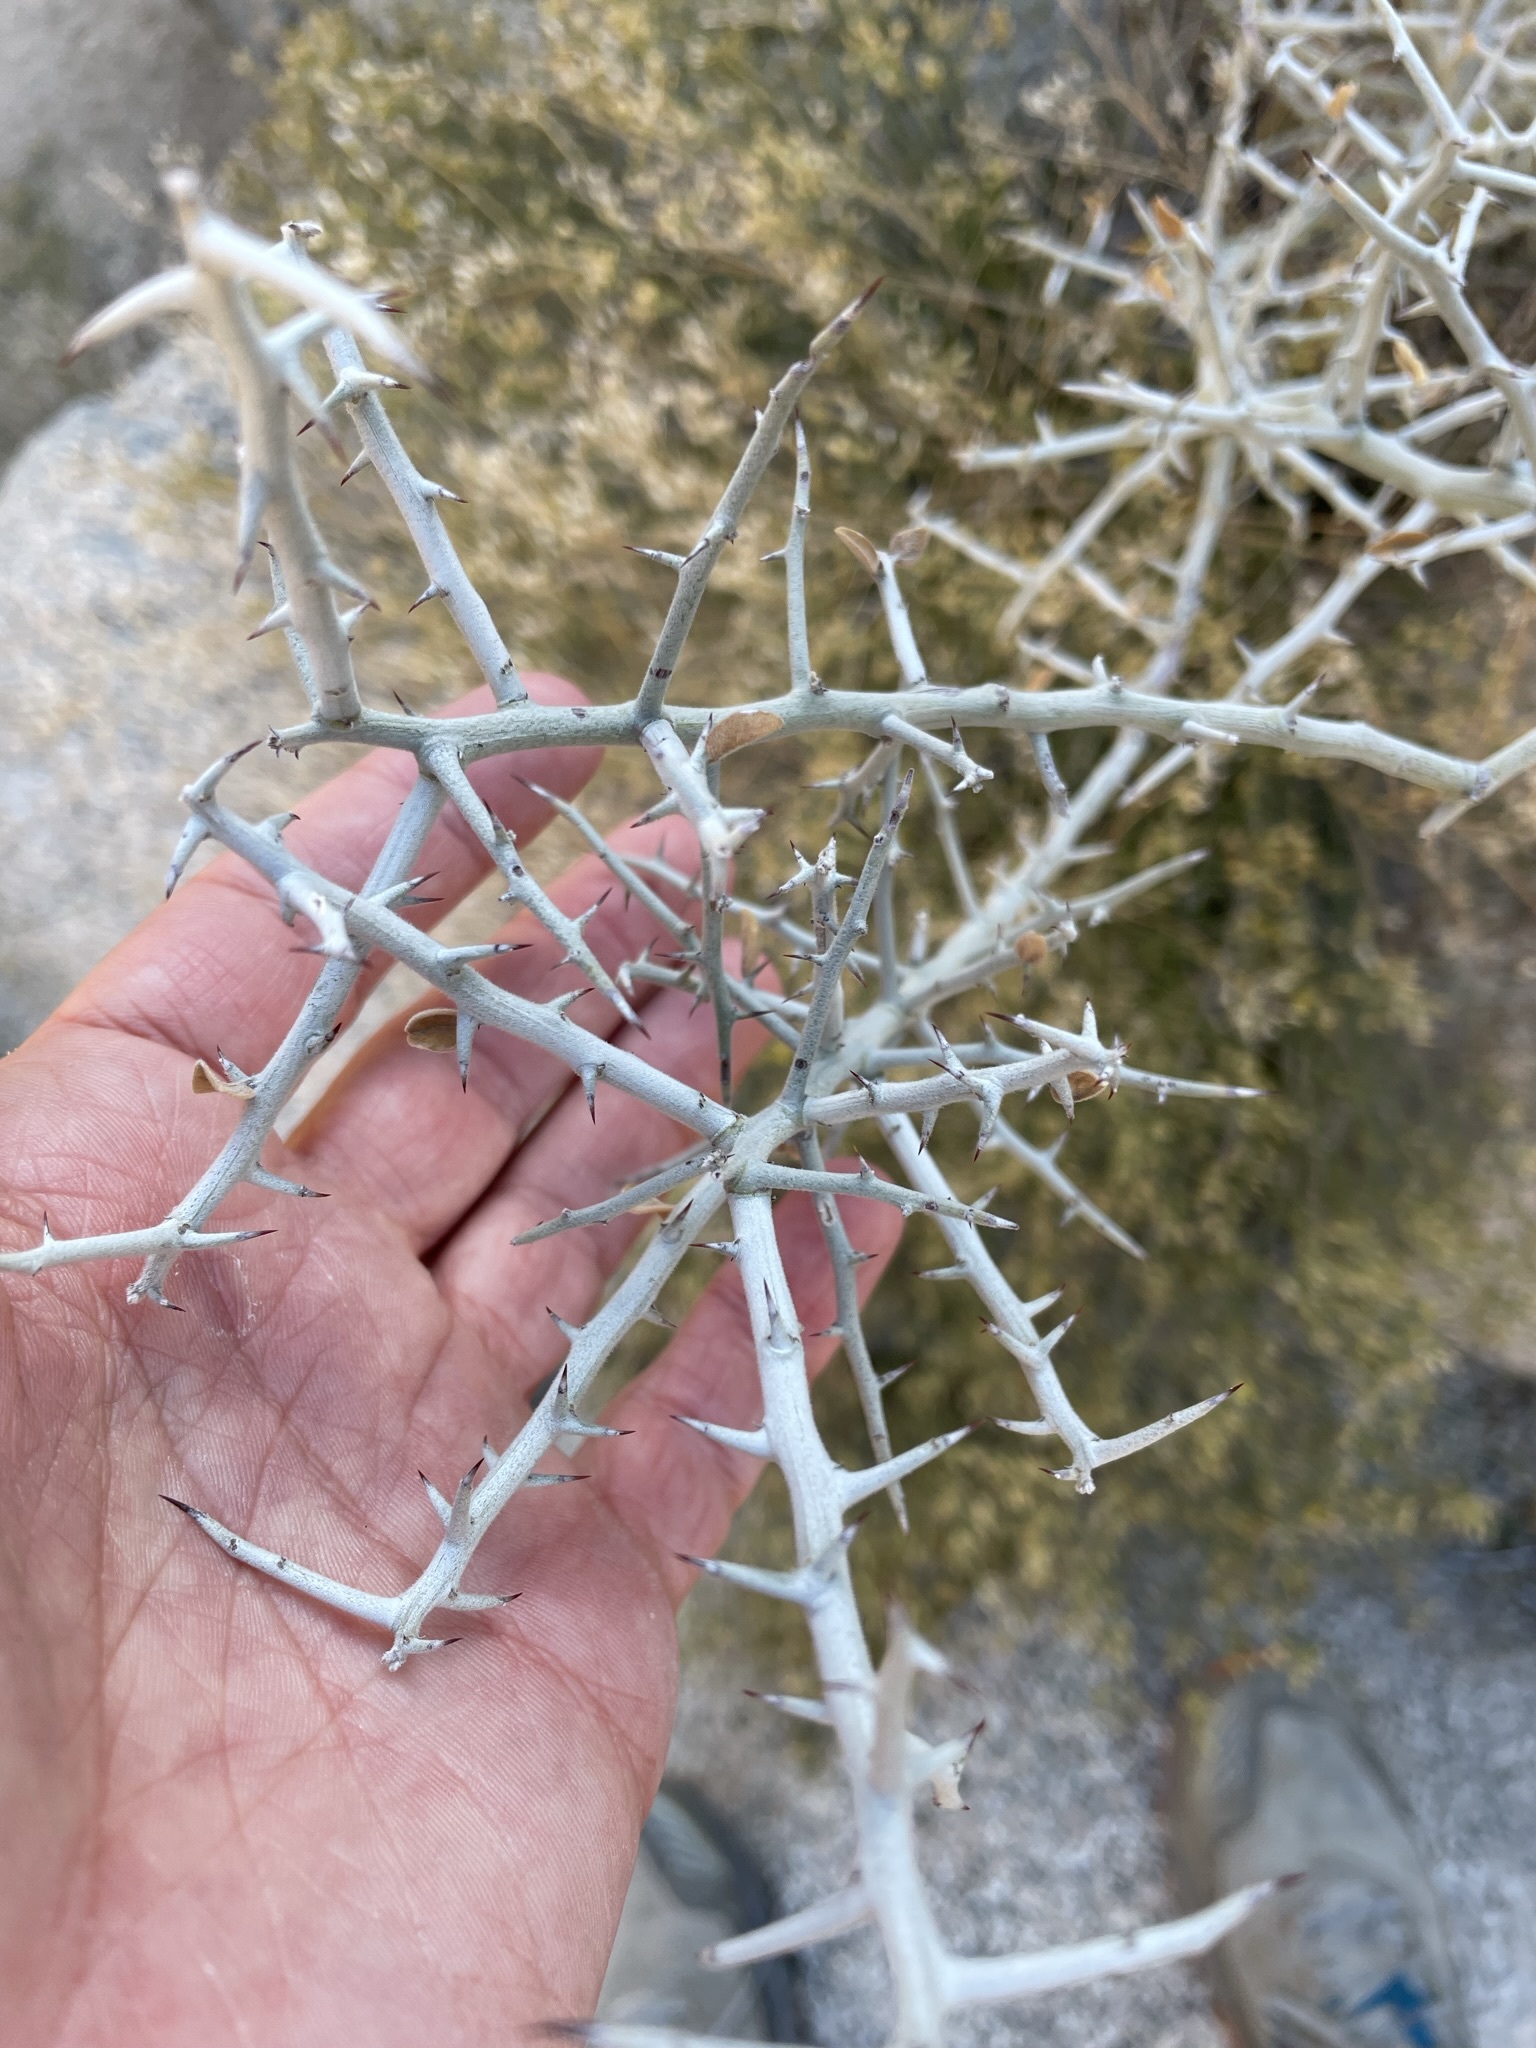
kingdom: Plantae
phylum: Tracheophyta
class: Magnoliopsida
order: Rosales
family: Rhamnaceae
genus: Sarcomphalus
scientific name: Sarcomphalus obtusifolius
